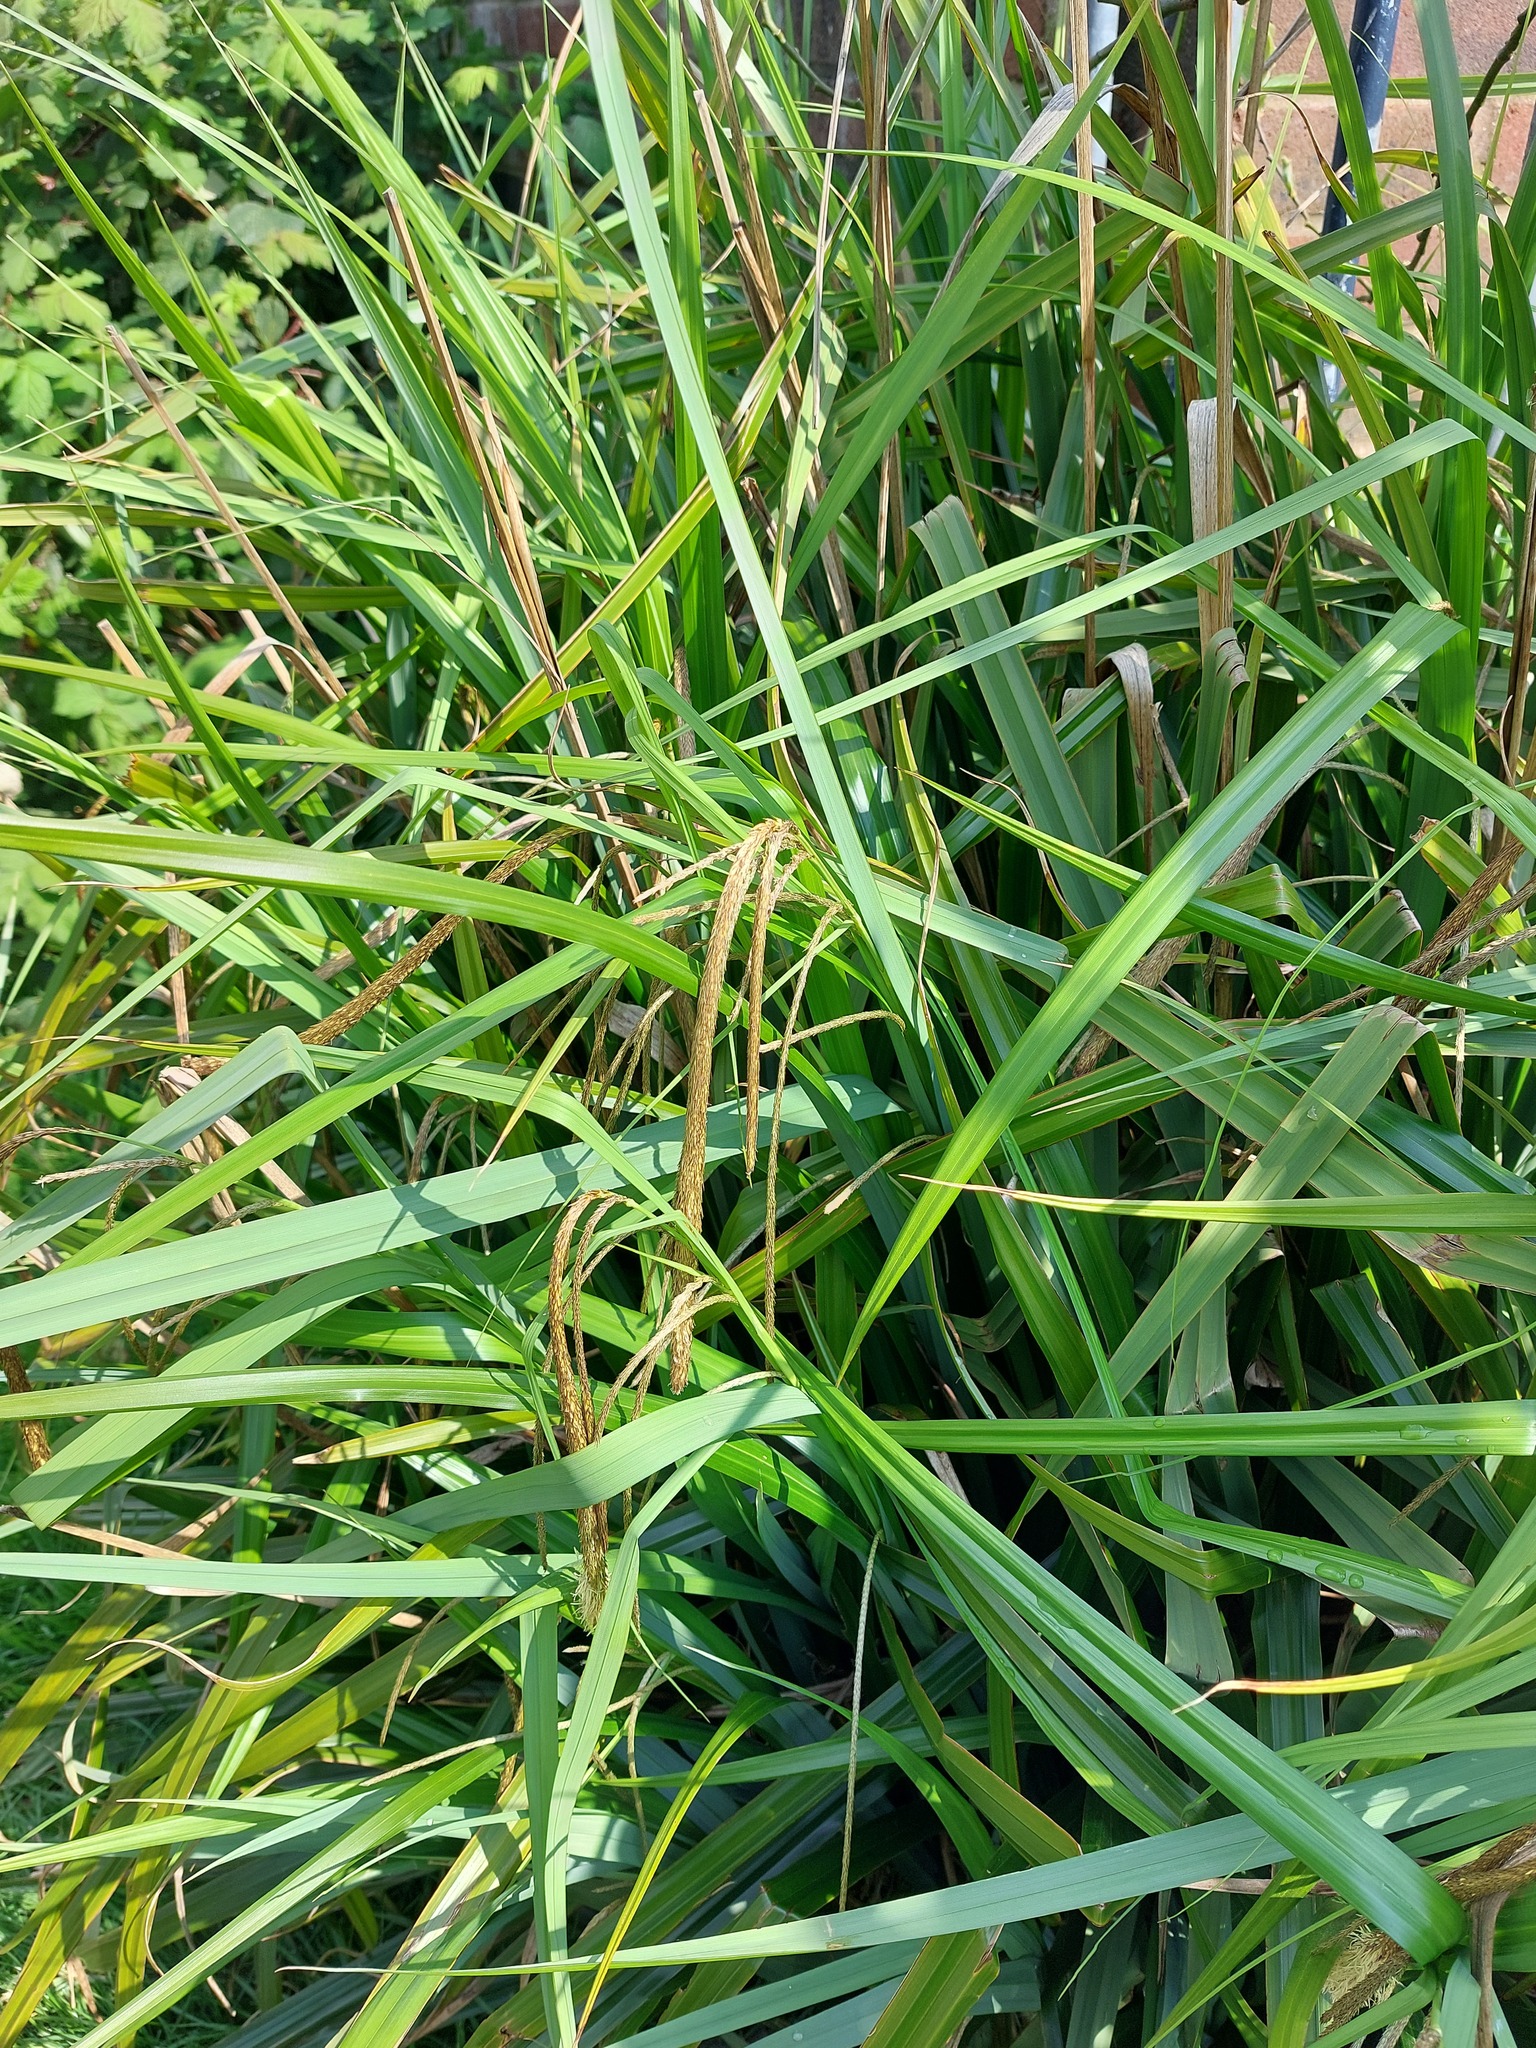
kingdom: Plantae
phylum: Tracheophyta
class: Liliopsida
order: Poales
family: Cyperaceae
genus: Carex
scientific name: Carex pendula
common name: Pendulous sedge
